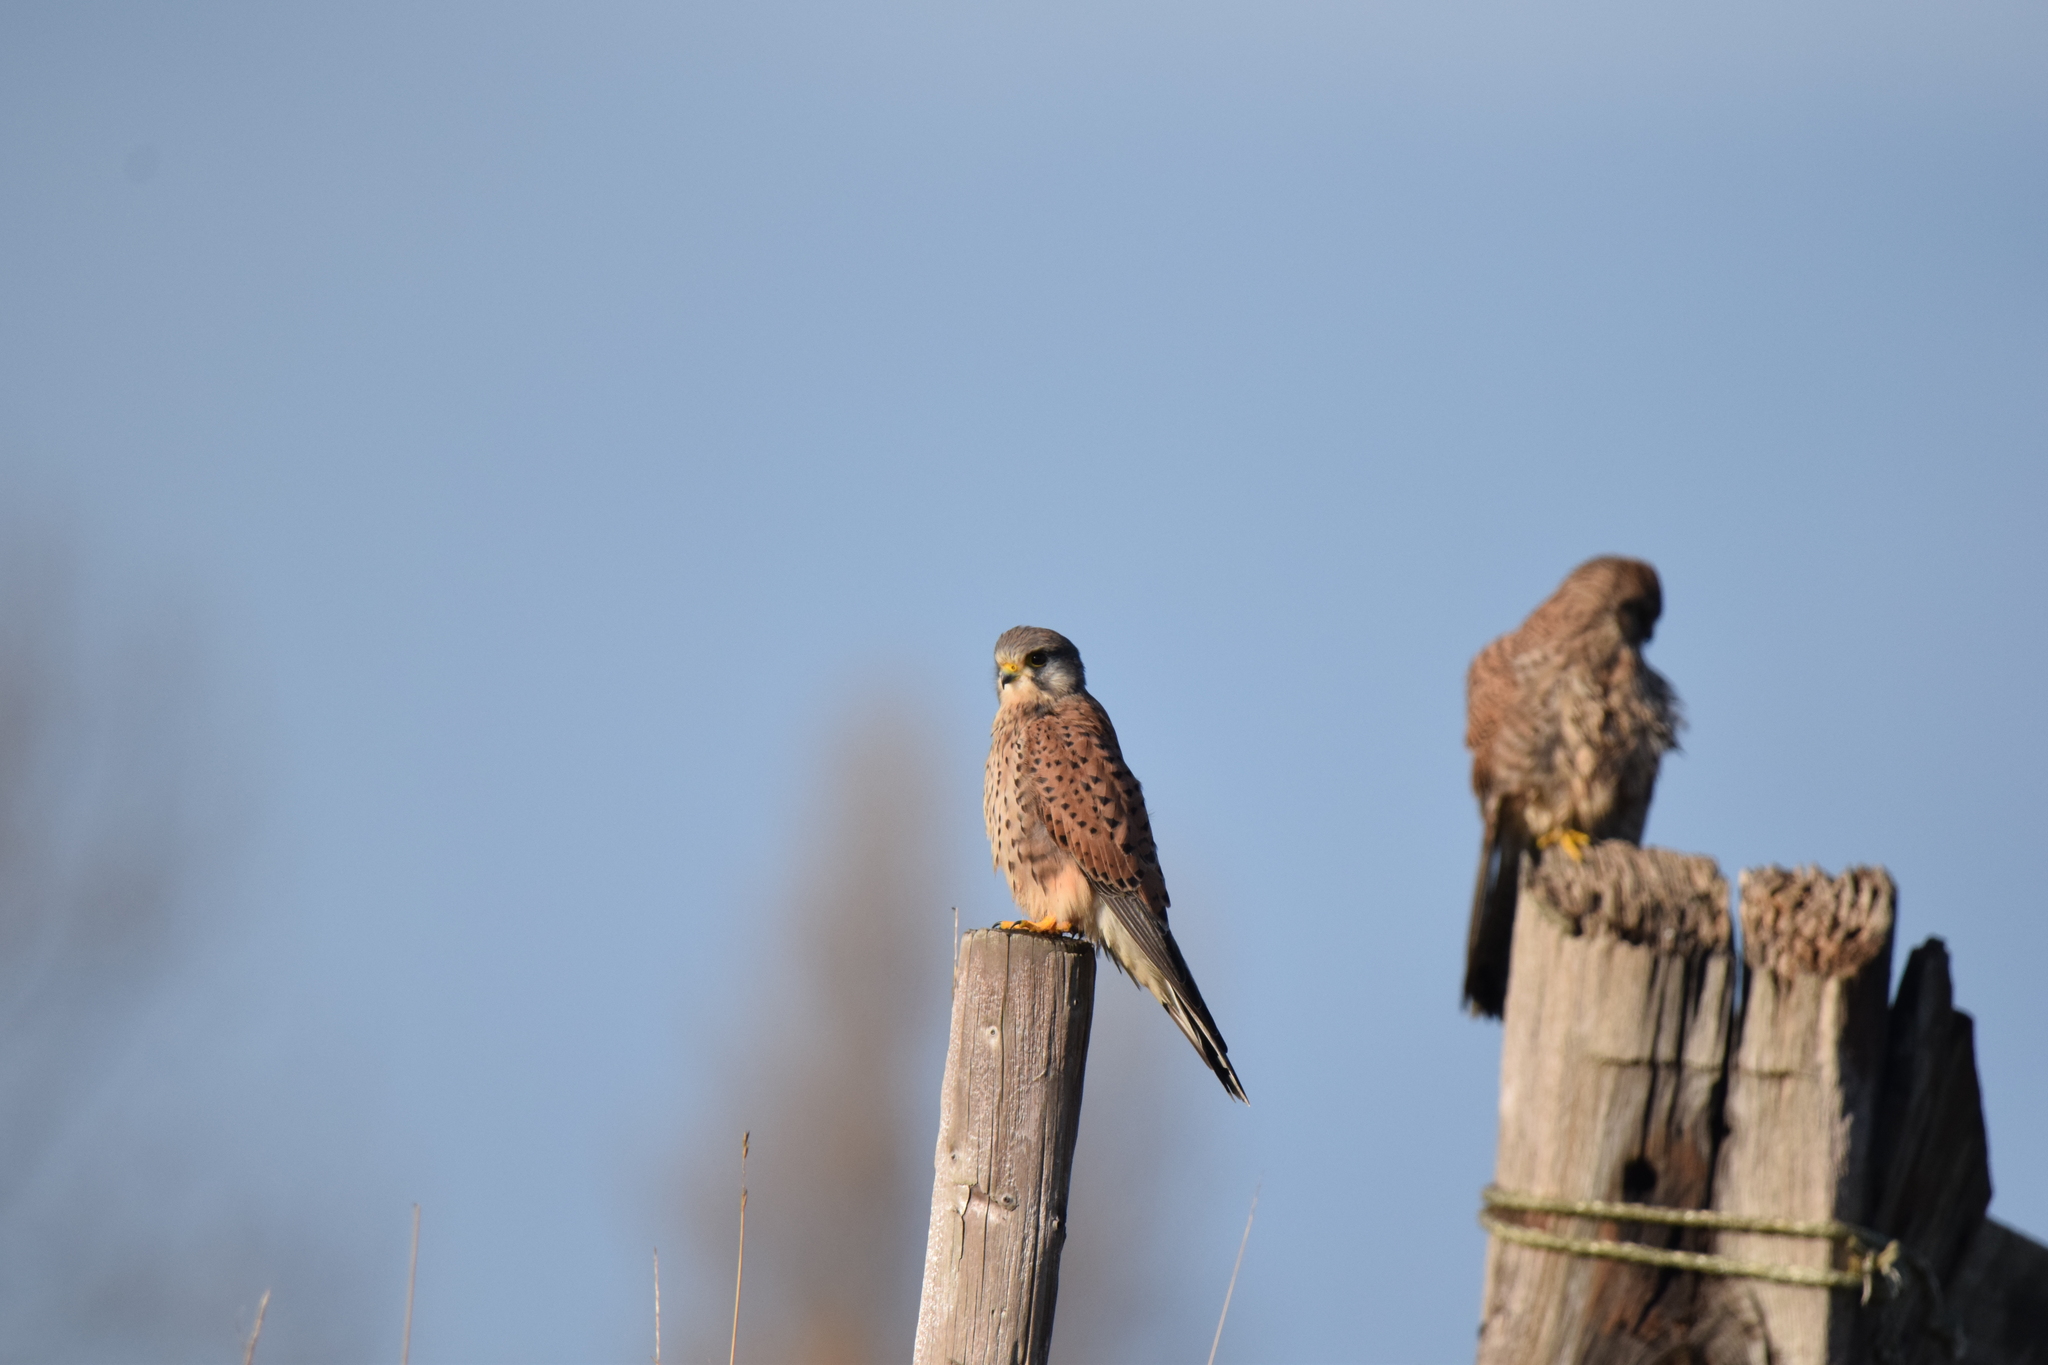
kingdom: Animalia
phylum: Chordata
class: Aves
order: Falconiformes
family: Falconidae
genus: Falco
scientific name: Falco tinnunculus
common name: Common kestrel
